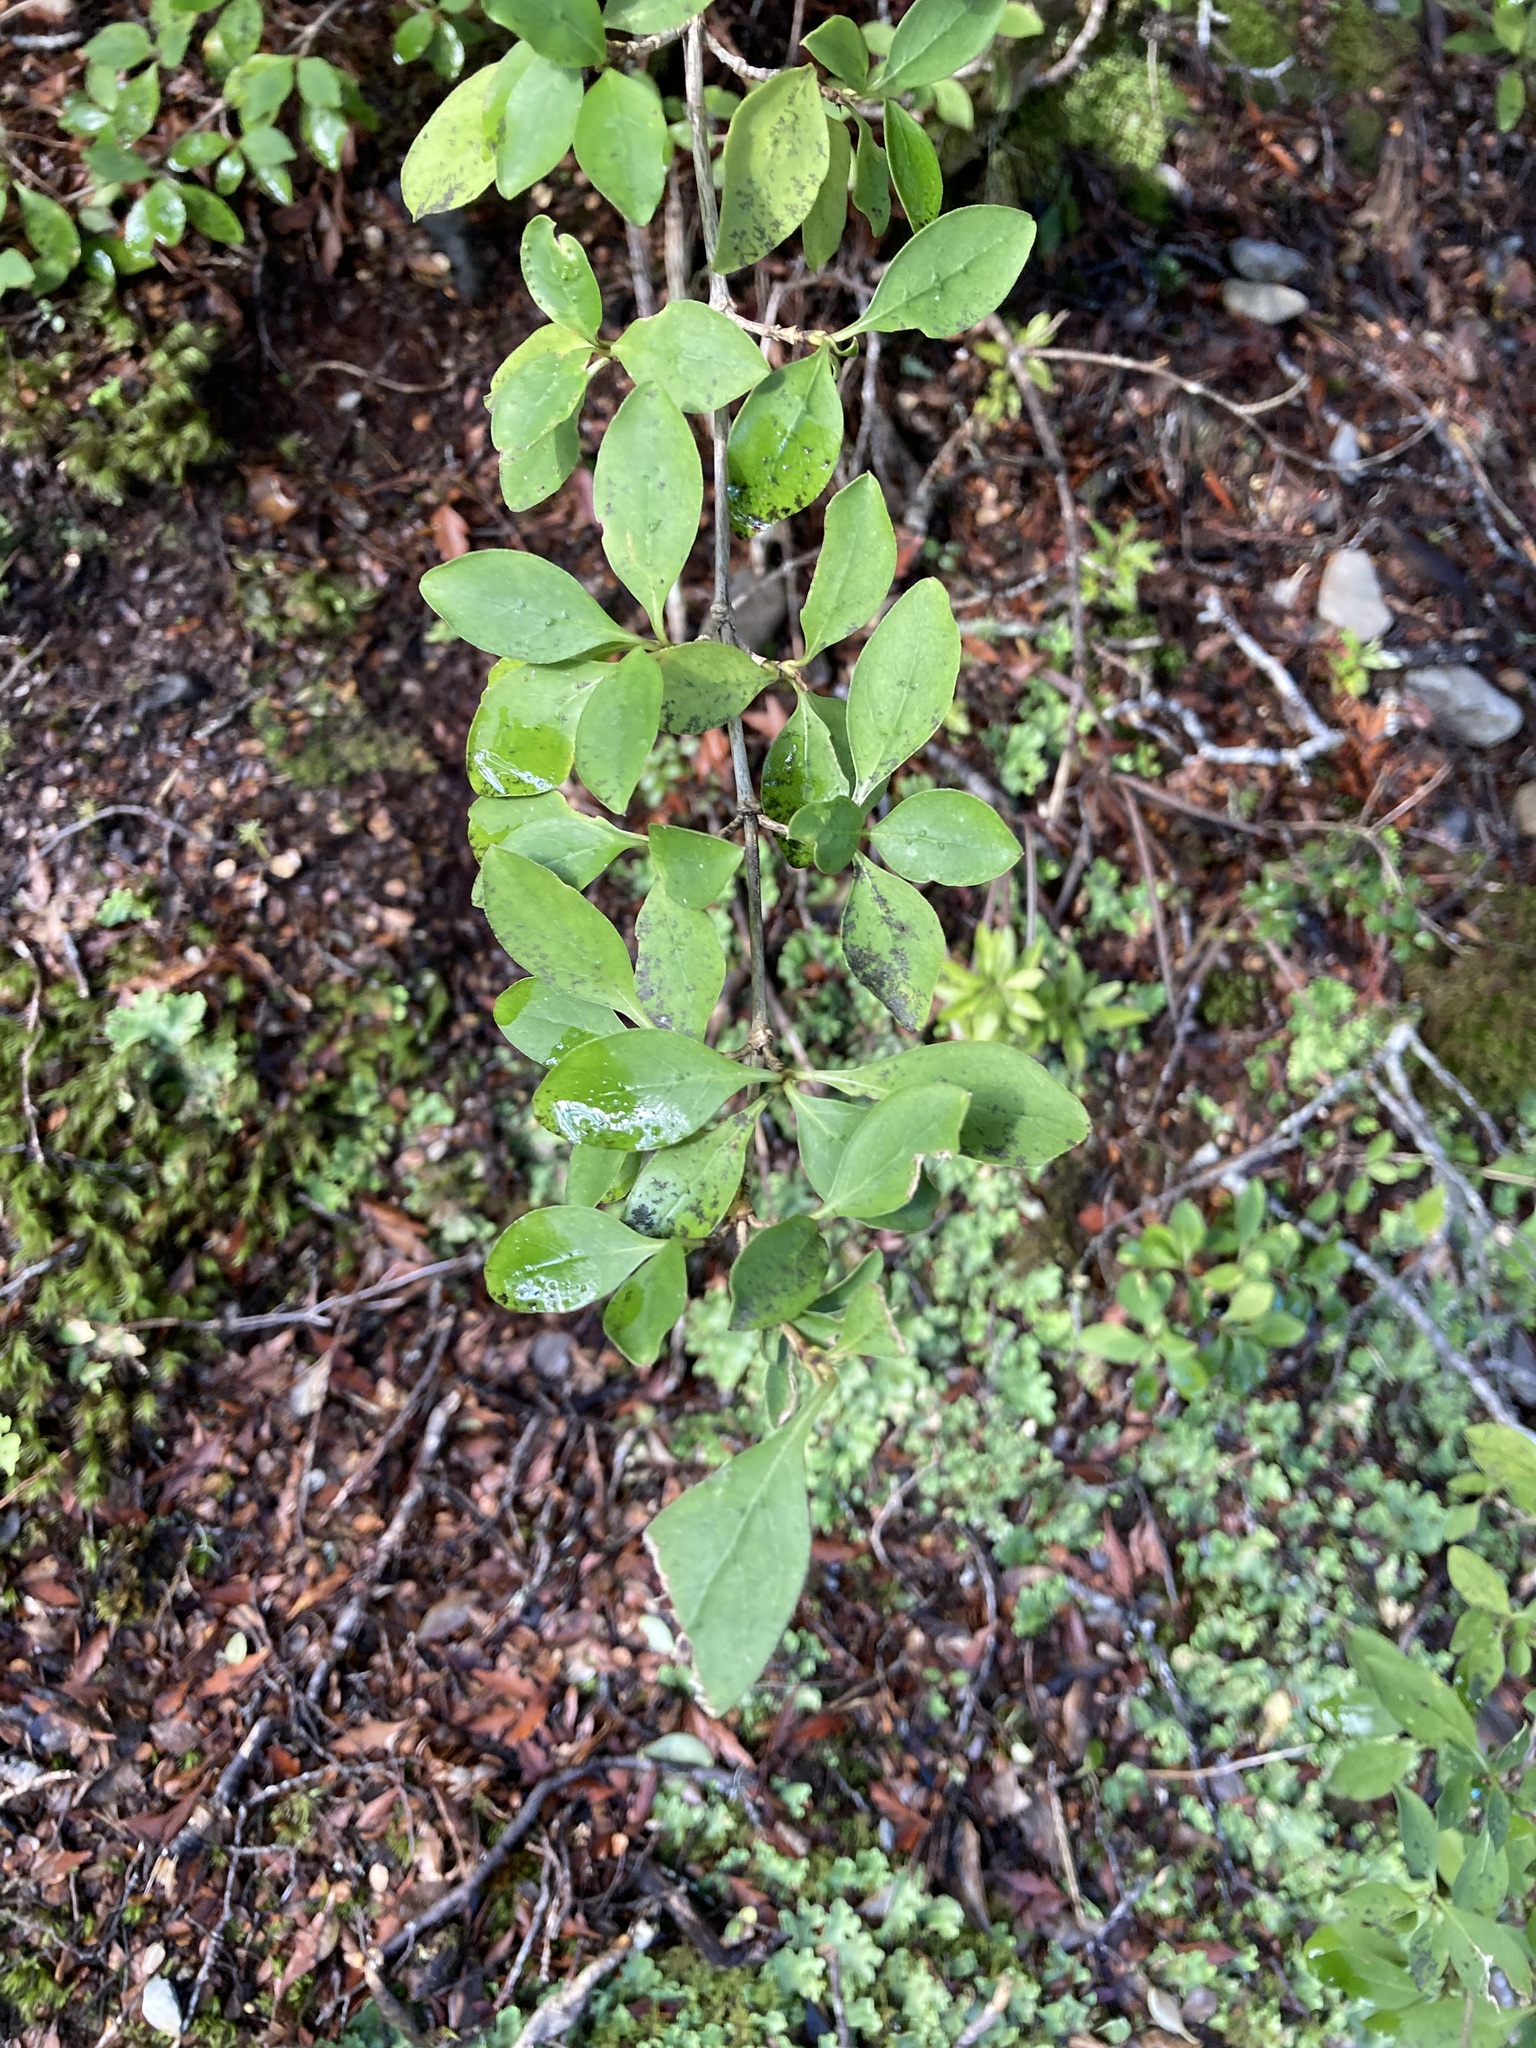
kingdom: Plantae
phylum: Tracheophyta
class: Magnoliopsida
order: Gentianales
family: Rubiaceae
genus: Coprosma
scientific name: Coprosma foetidissima
